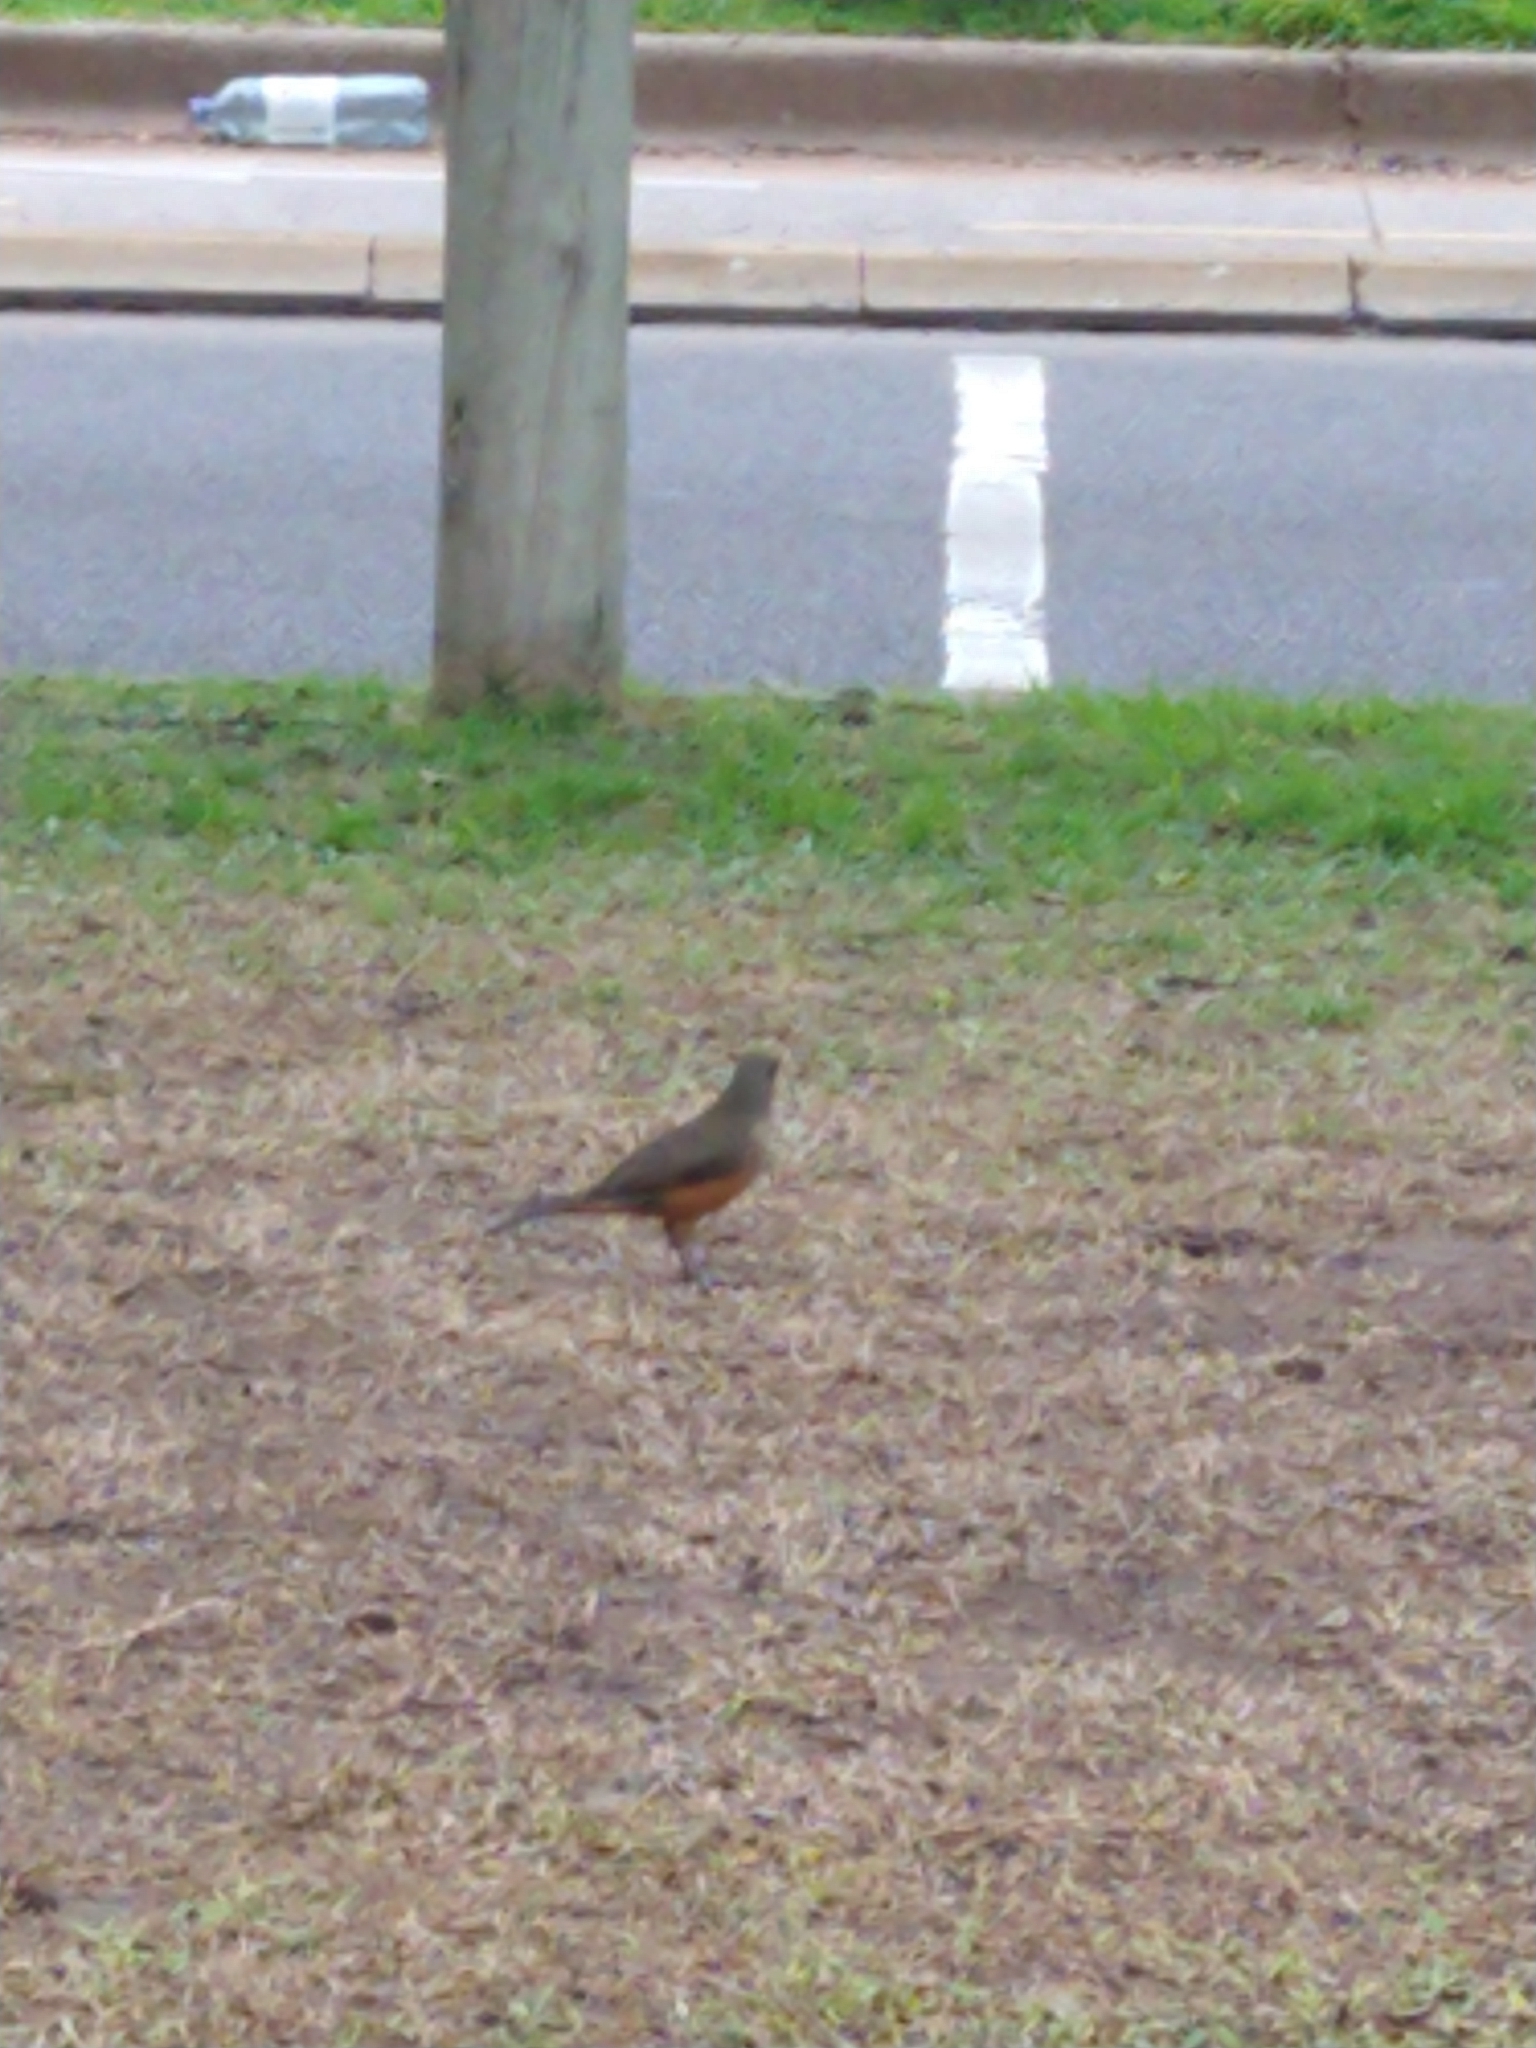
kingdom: Animalia
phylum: Chordata
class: Aves
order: Passeriformes
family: Turdidae
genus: Turdus
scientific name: Turdus rufiventris
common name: Rufous-bellied thrush
